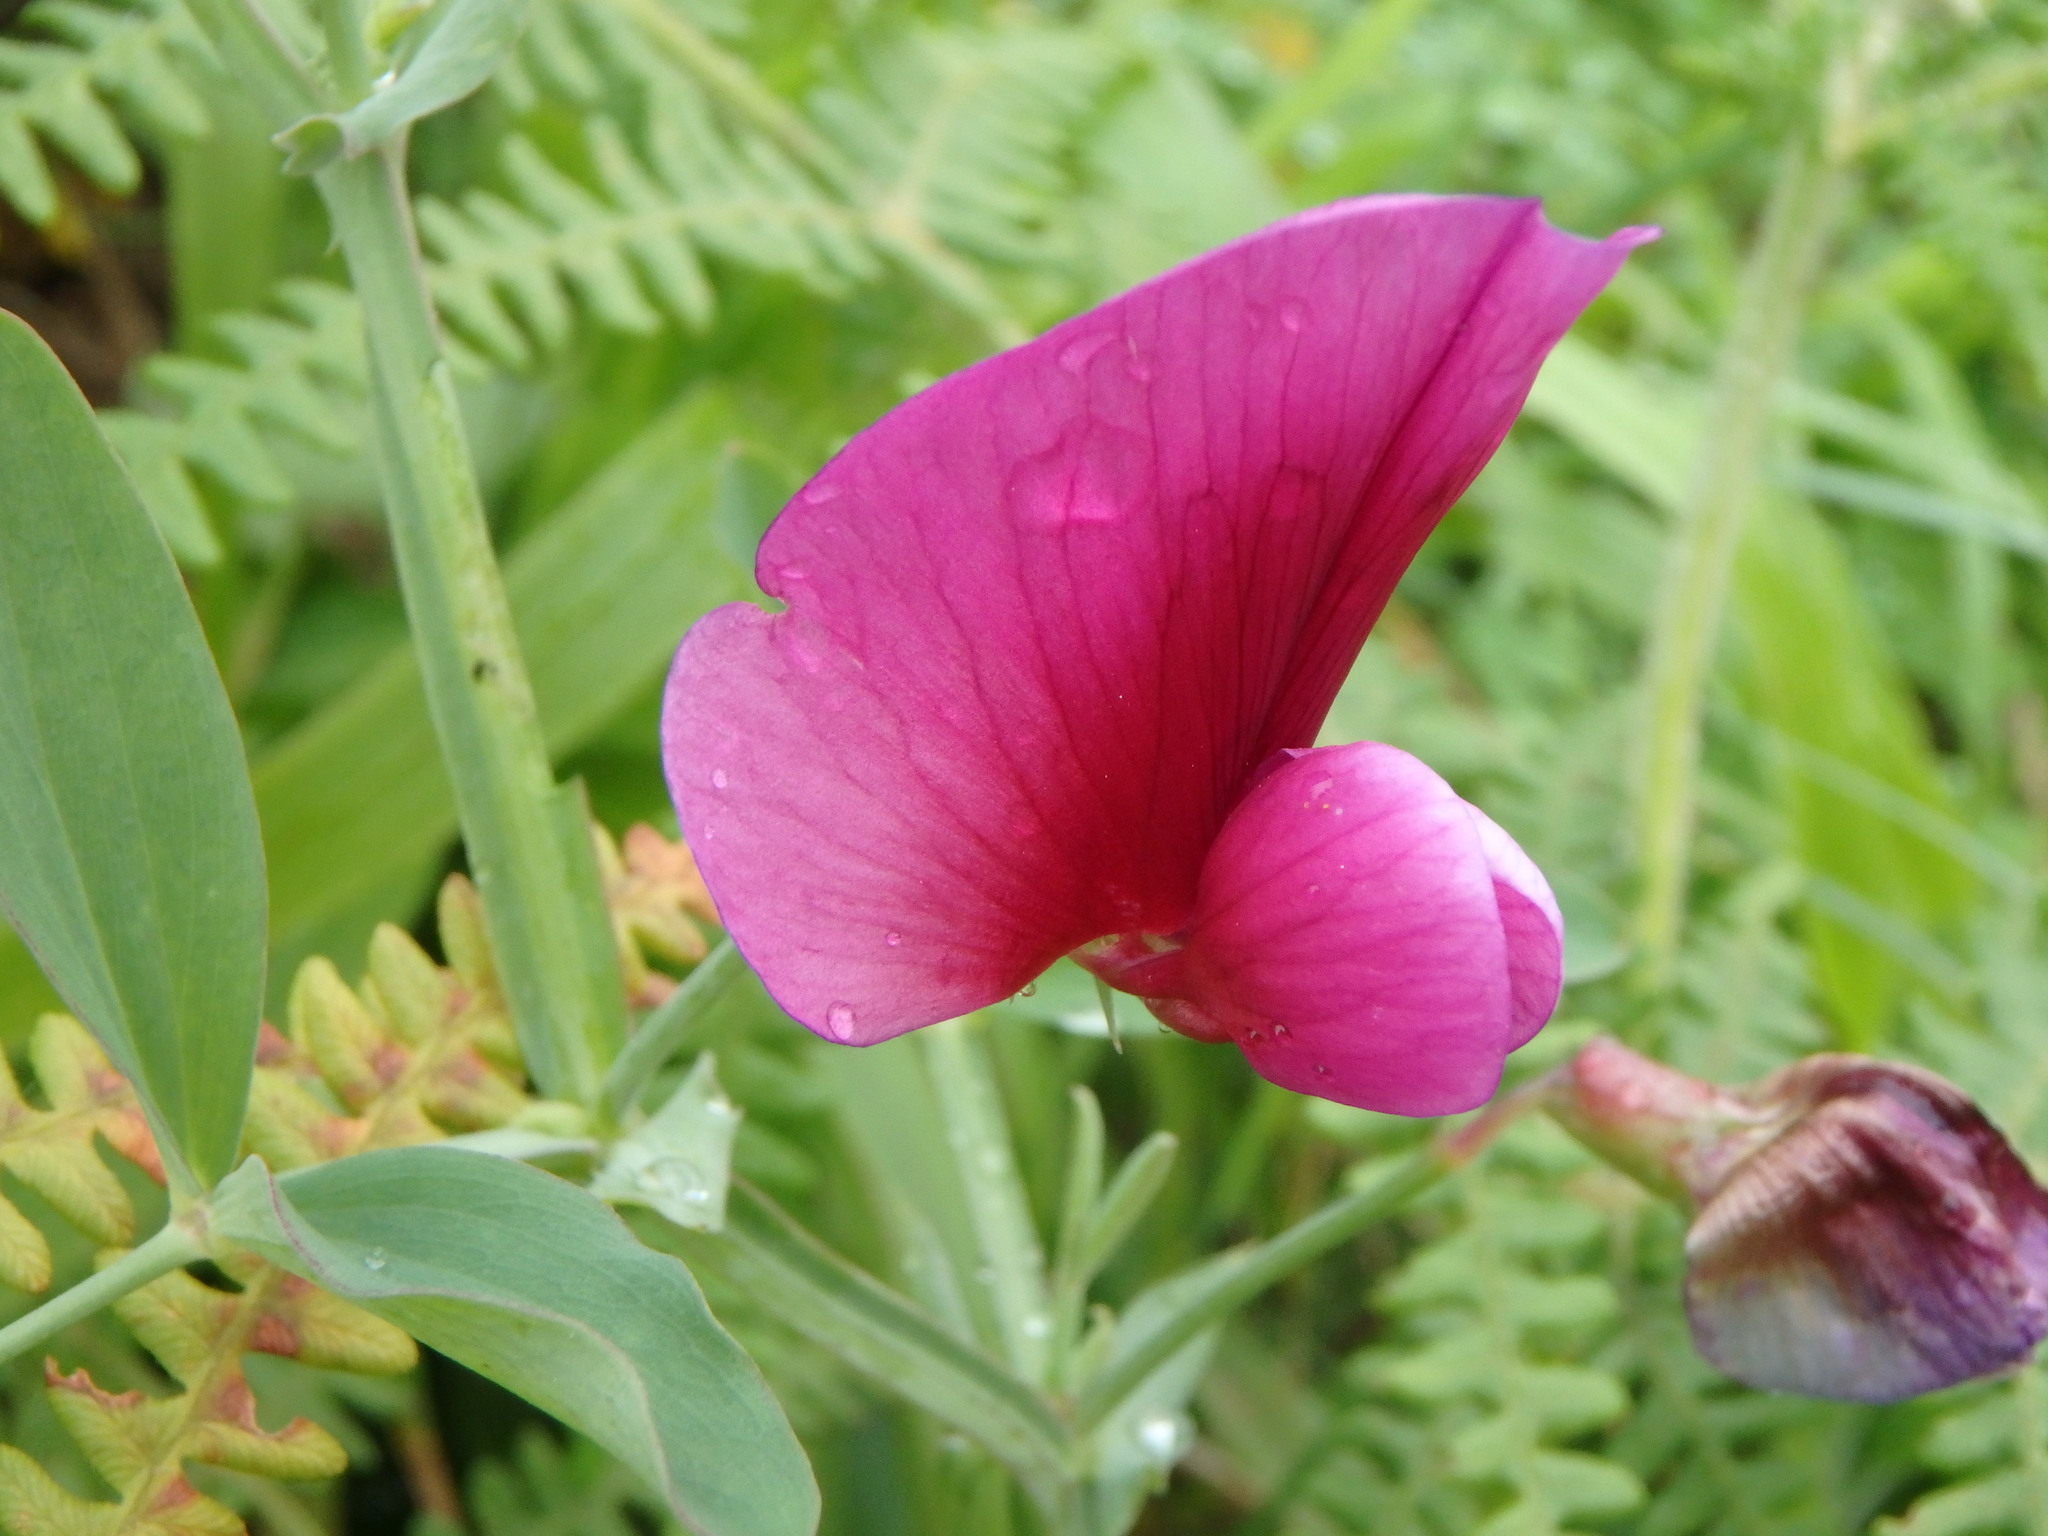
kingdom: Plantae
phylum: Tracheophyta
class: Magnoliopsida
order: Fabales
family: Fabaceae
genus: Lathyrus
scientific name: Lathyrus tingitanus
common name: Tangier pea
